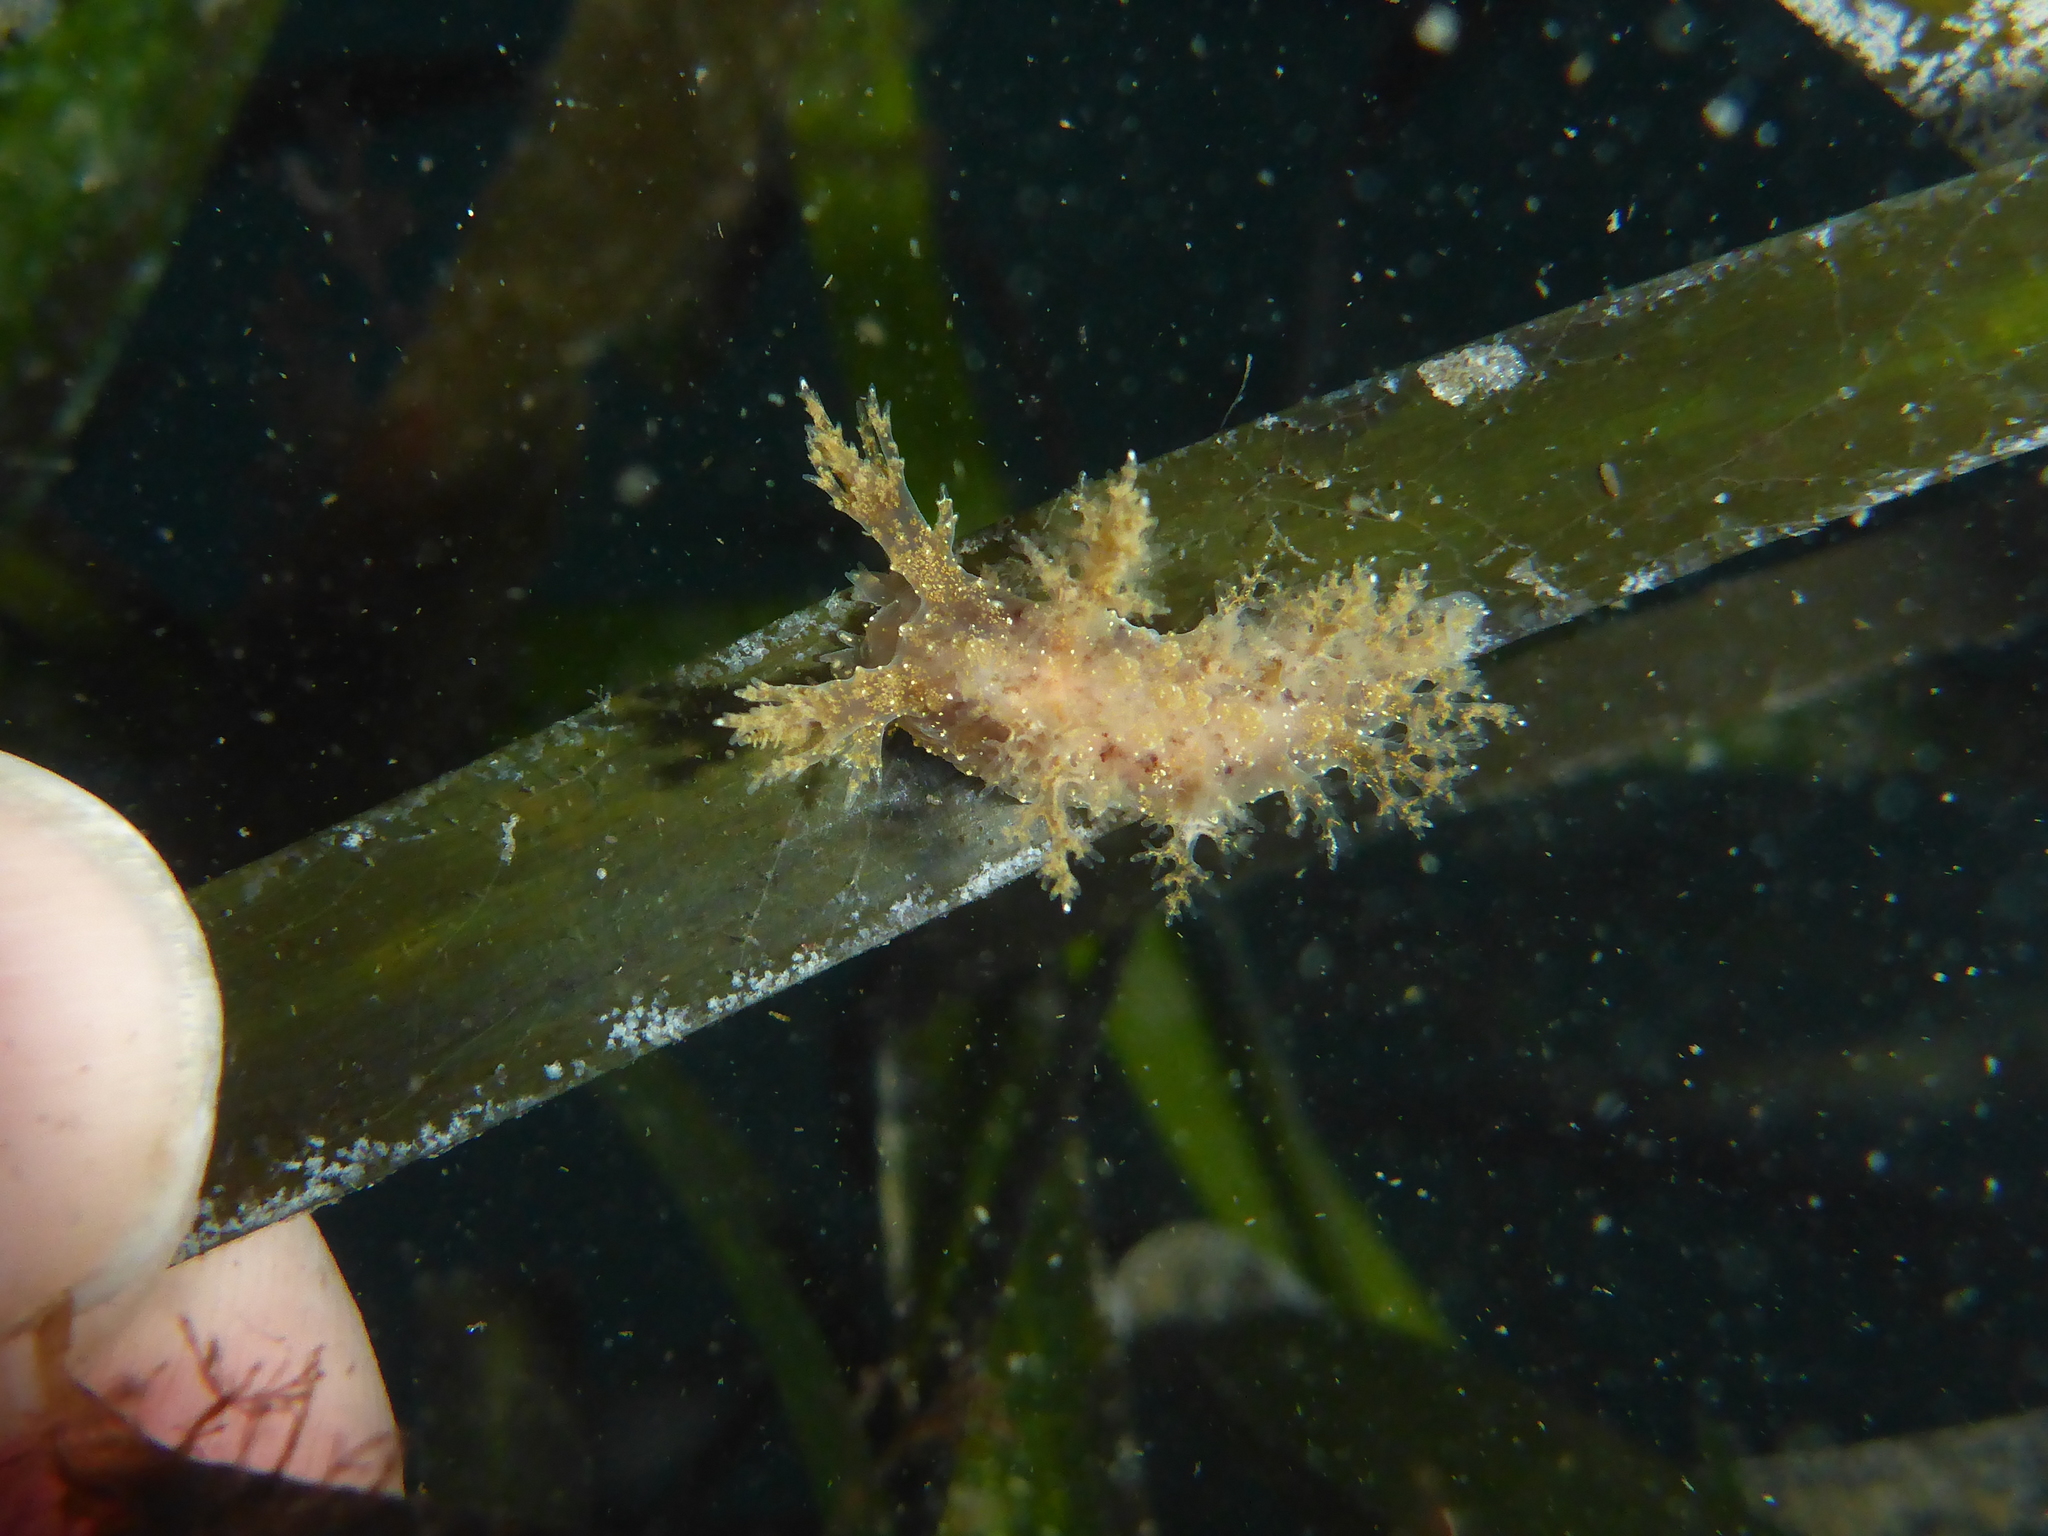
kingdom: Animalia
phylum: Mollusca
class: Gastropoda
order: Nudibranchia
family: Dendronotidae
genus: Dendronotus
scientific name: Dendronotus venustus
